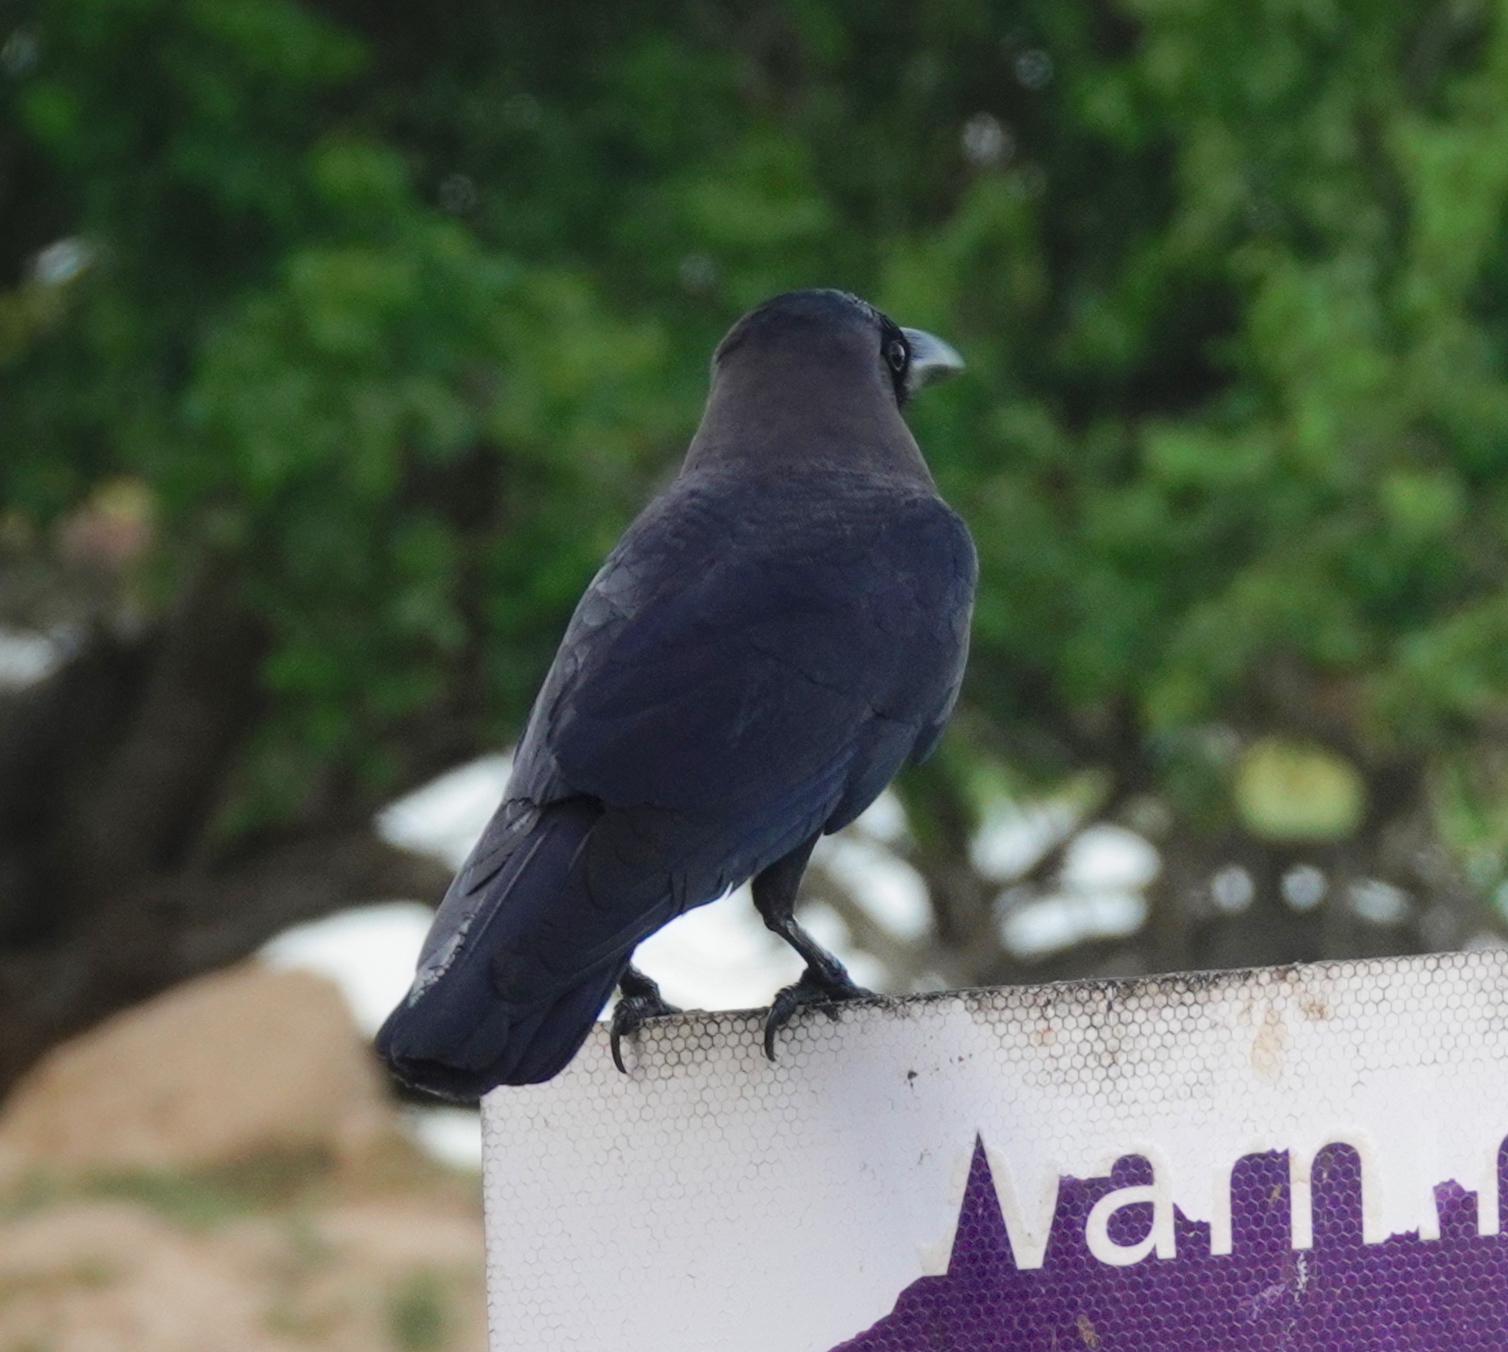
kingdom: Animalia
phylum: Chordata
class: Aves
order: Passeriformes
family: Corvidae
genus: Corvus
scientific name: Corvus splendens
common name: House crow
